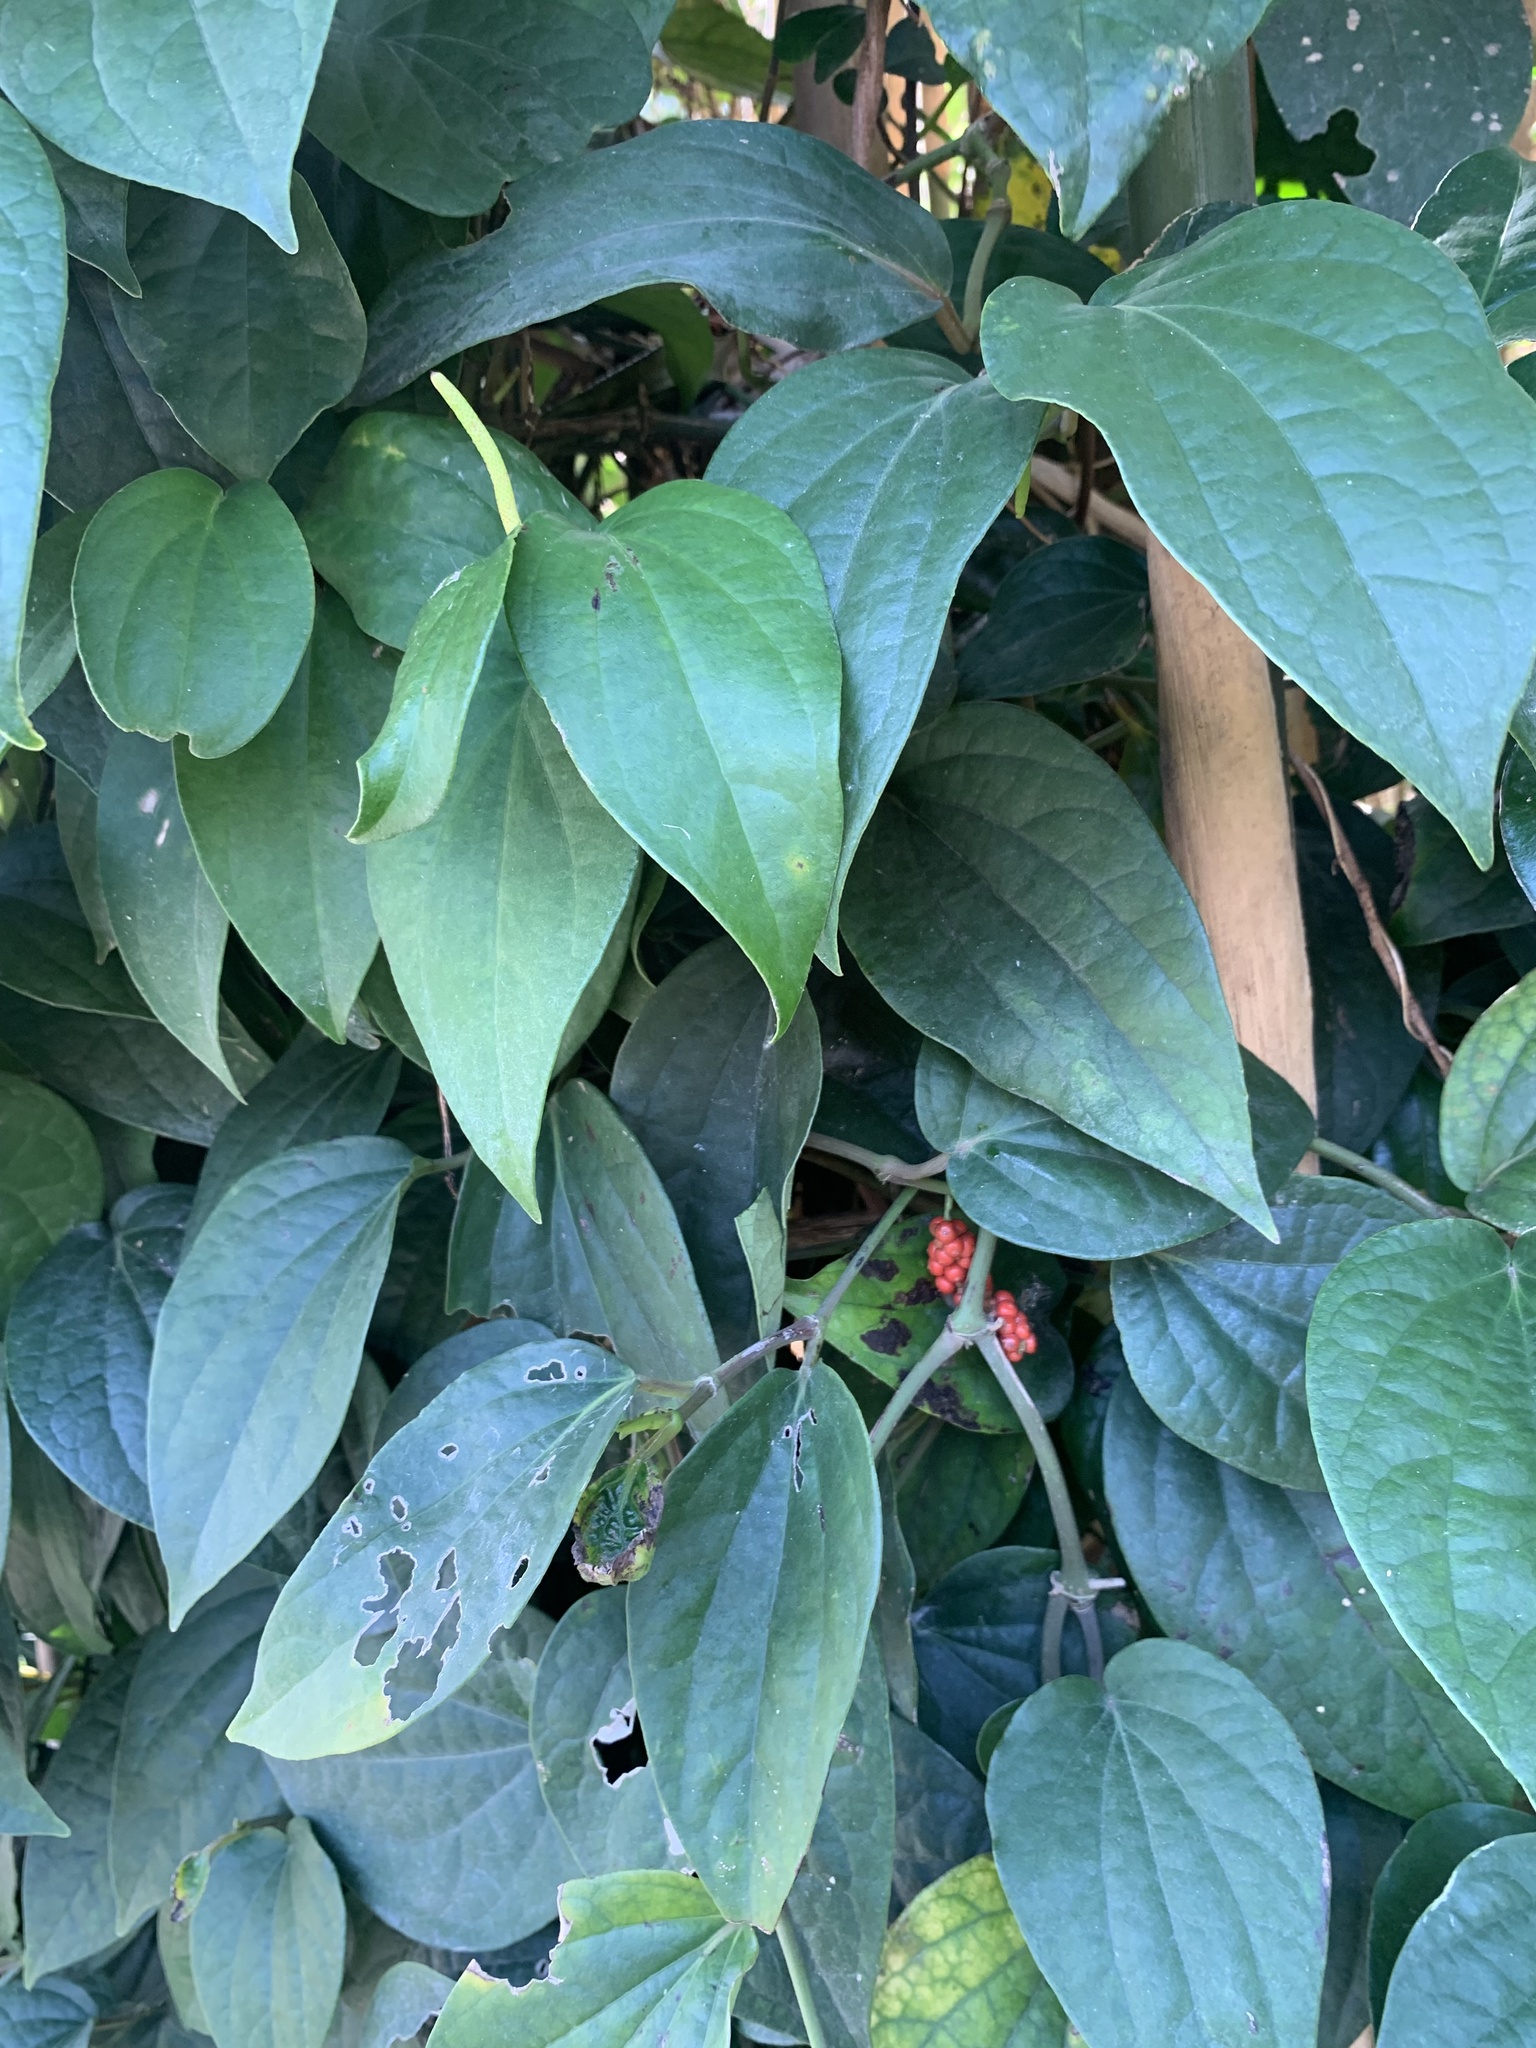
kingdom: Plantae
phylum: Tracheophyta
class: Magnoliopsida
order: Piperales
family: Piperaceae
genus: Piper
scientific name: Piper kadsura
